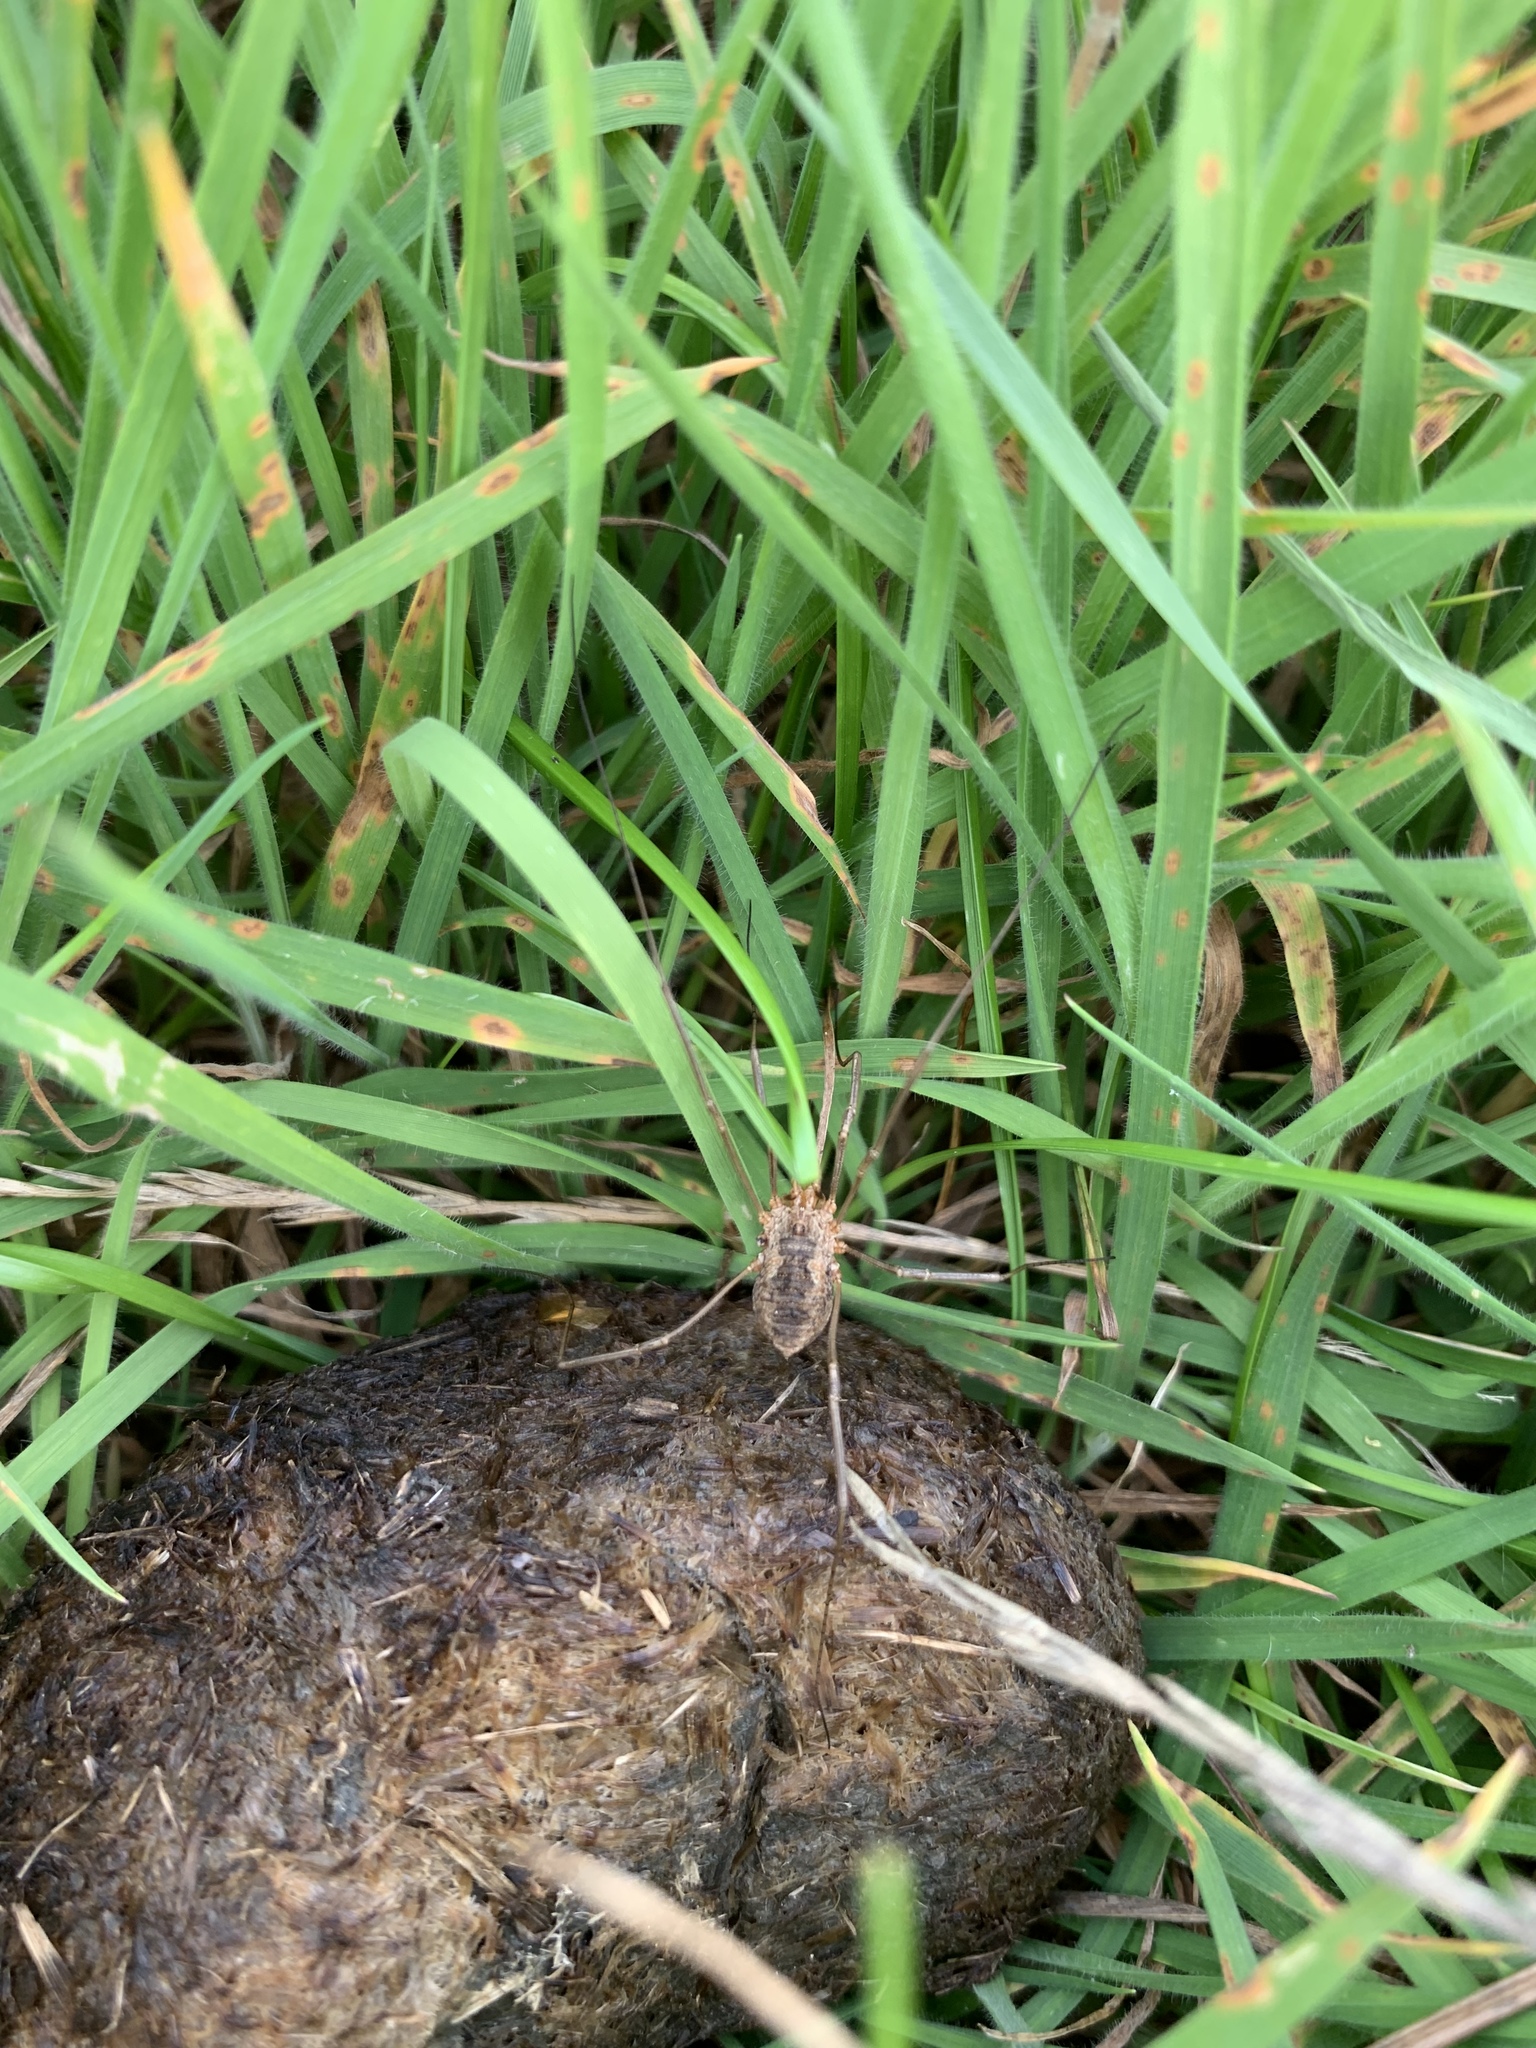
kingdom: Animalia
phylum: Arthropoda
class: Arachnida
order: Opiliones
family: Phalangiidae
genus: Phalangium
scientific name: Phalangium opilio
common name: Daddy longleg
